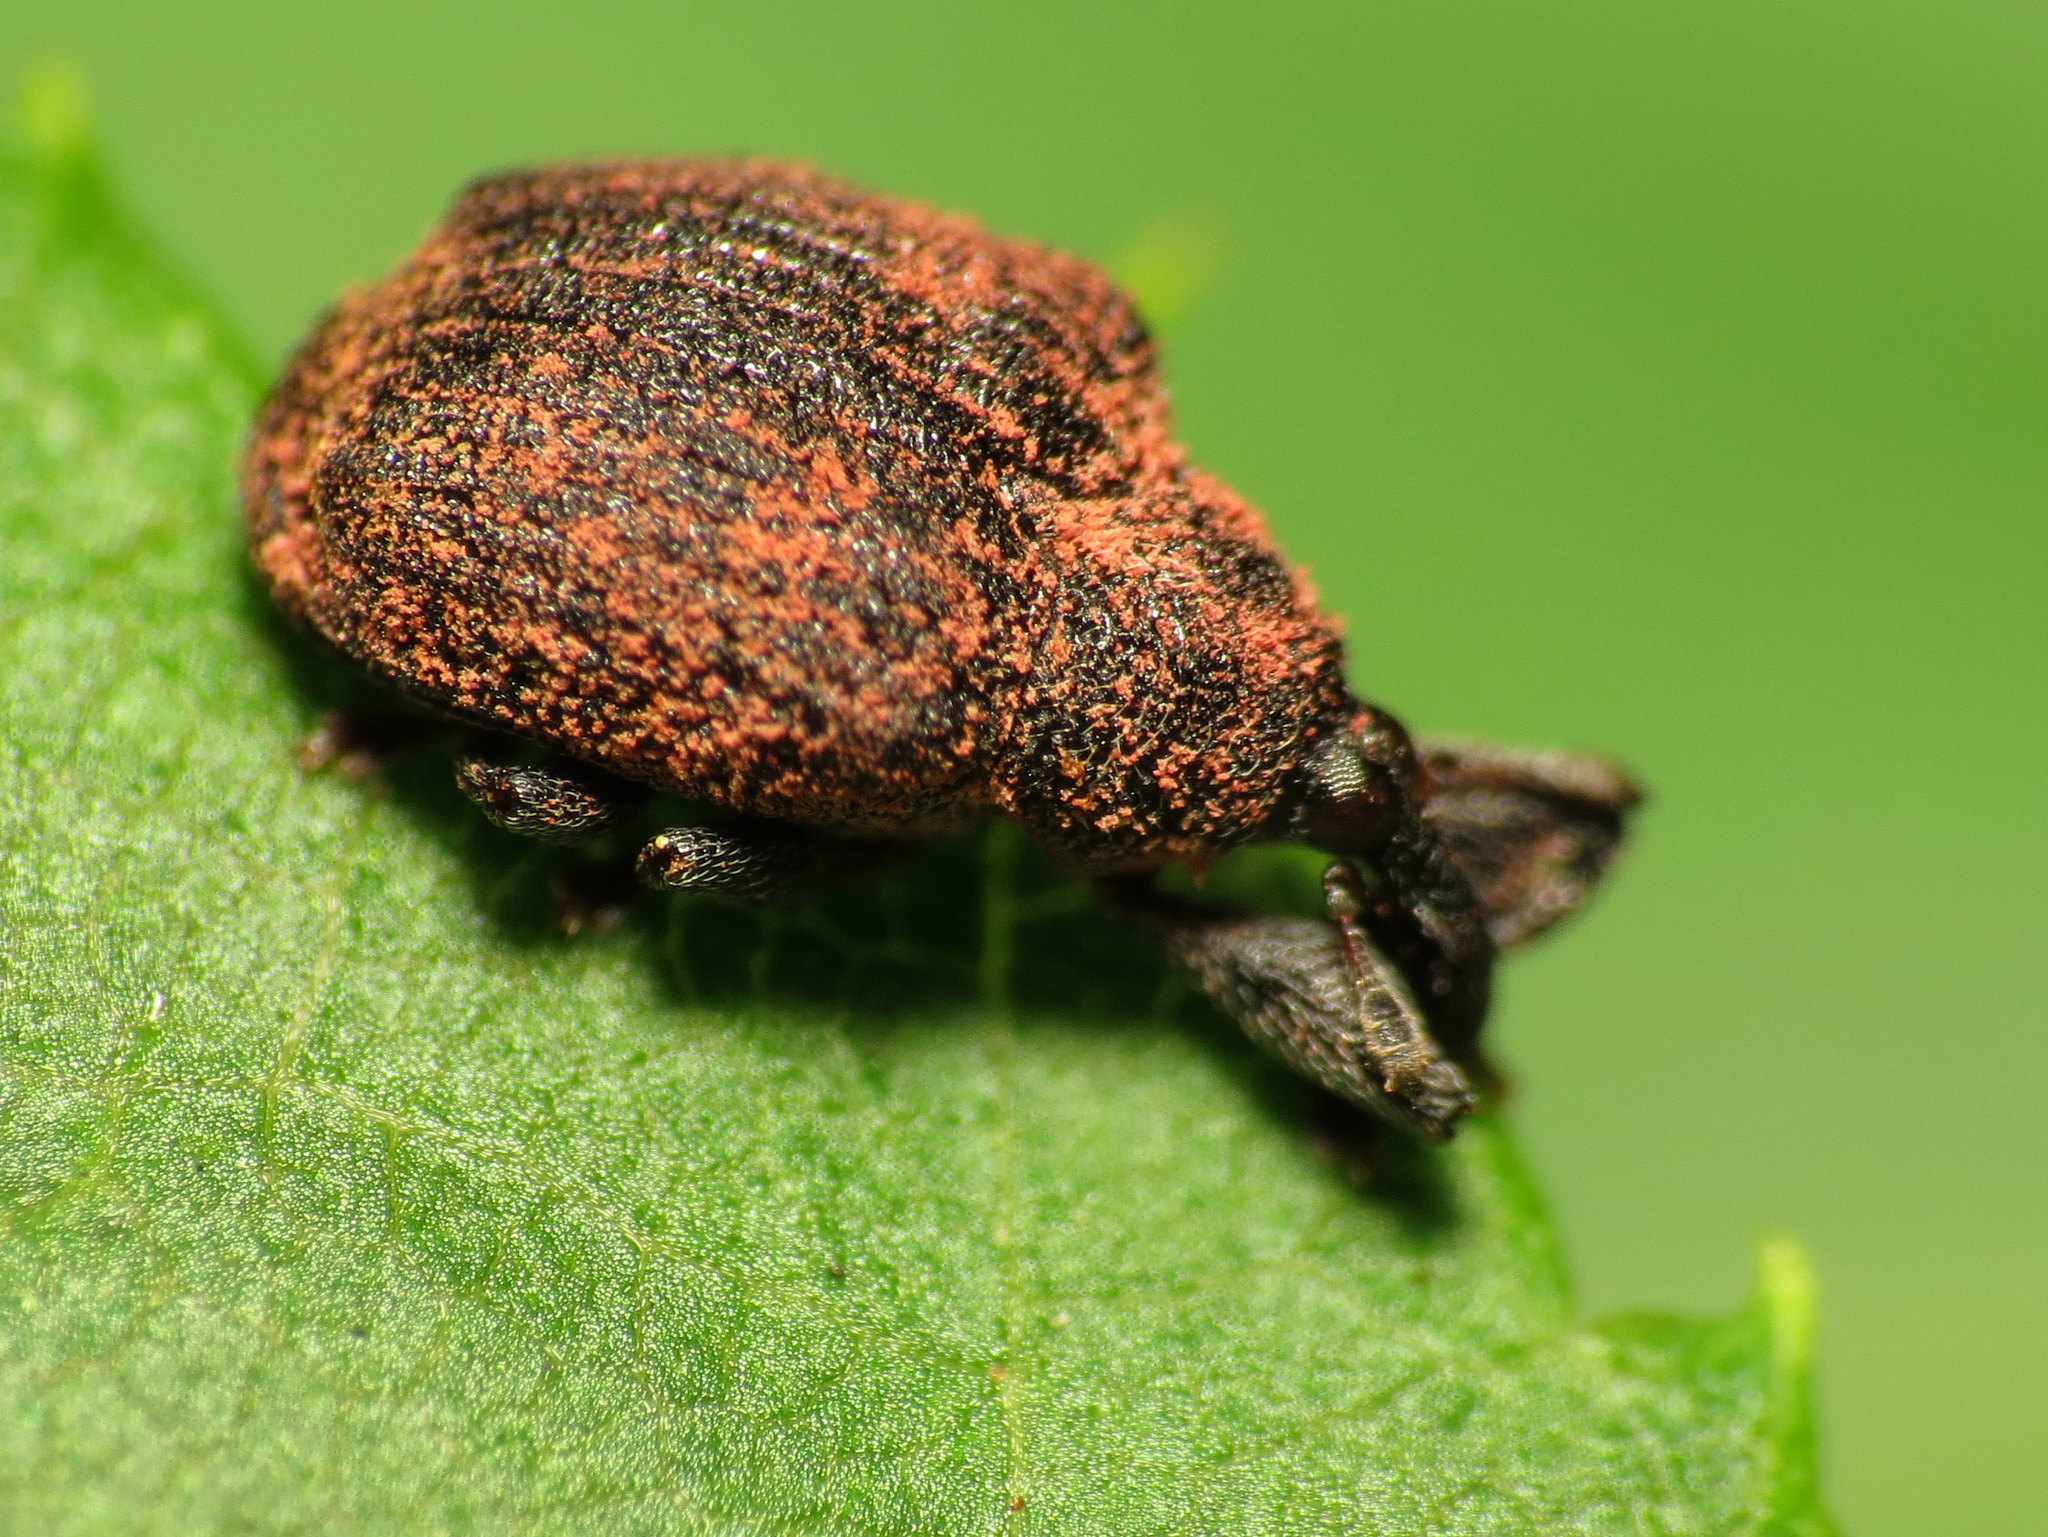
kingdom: Animalia
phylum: Arthropoda
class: Insecta
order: Coleoptera
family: Curculionidae
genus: Odontopus
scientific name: Odontopus calceatus
